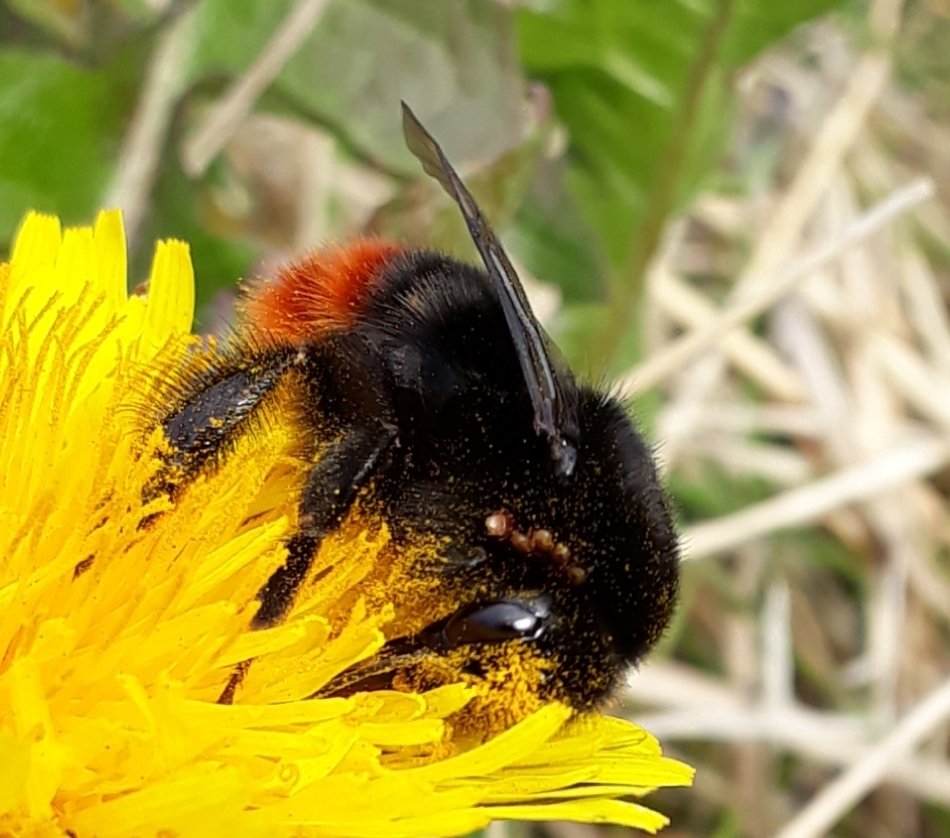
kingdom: Animalia
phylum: Arthropoda
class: Insecta
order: Hymenoptera
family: Apidae
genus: Bombus
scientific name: Bombus lapidarius
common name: Large red-tailed humble-bee
